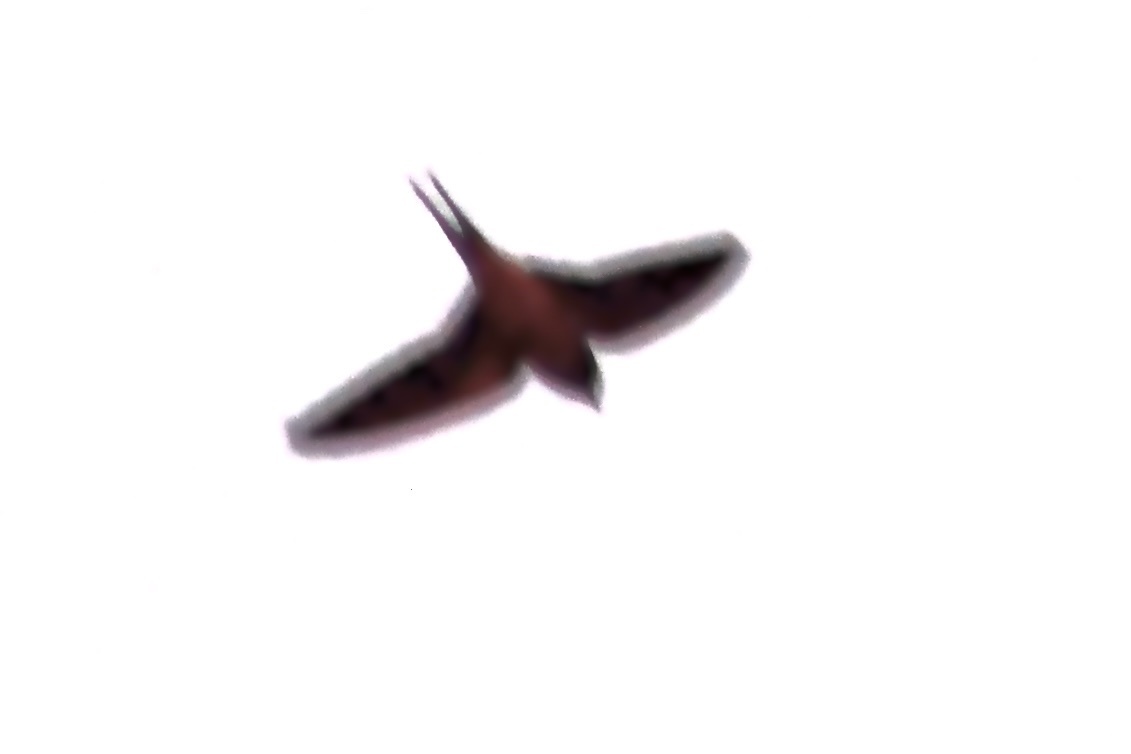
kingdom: Animalia
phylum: Chordata
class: Aves
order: Passeriformes
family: Hirundinidae
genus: Hirundo
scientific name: Hirundo rustica
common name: Barn swallow
